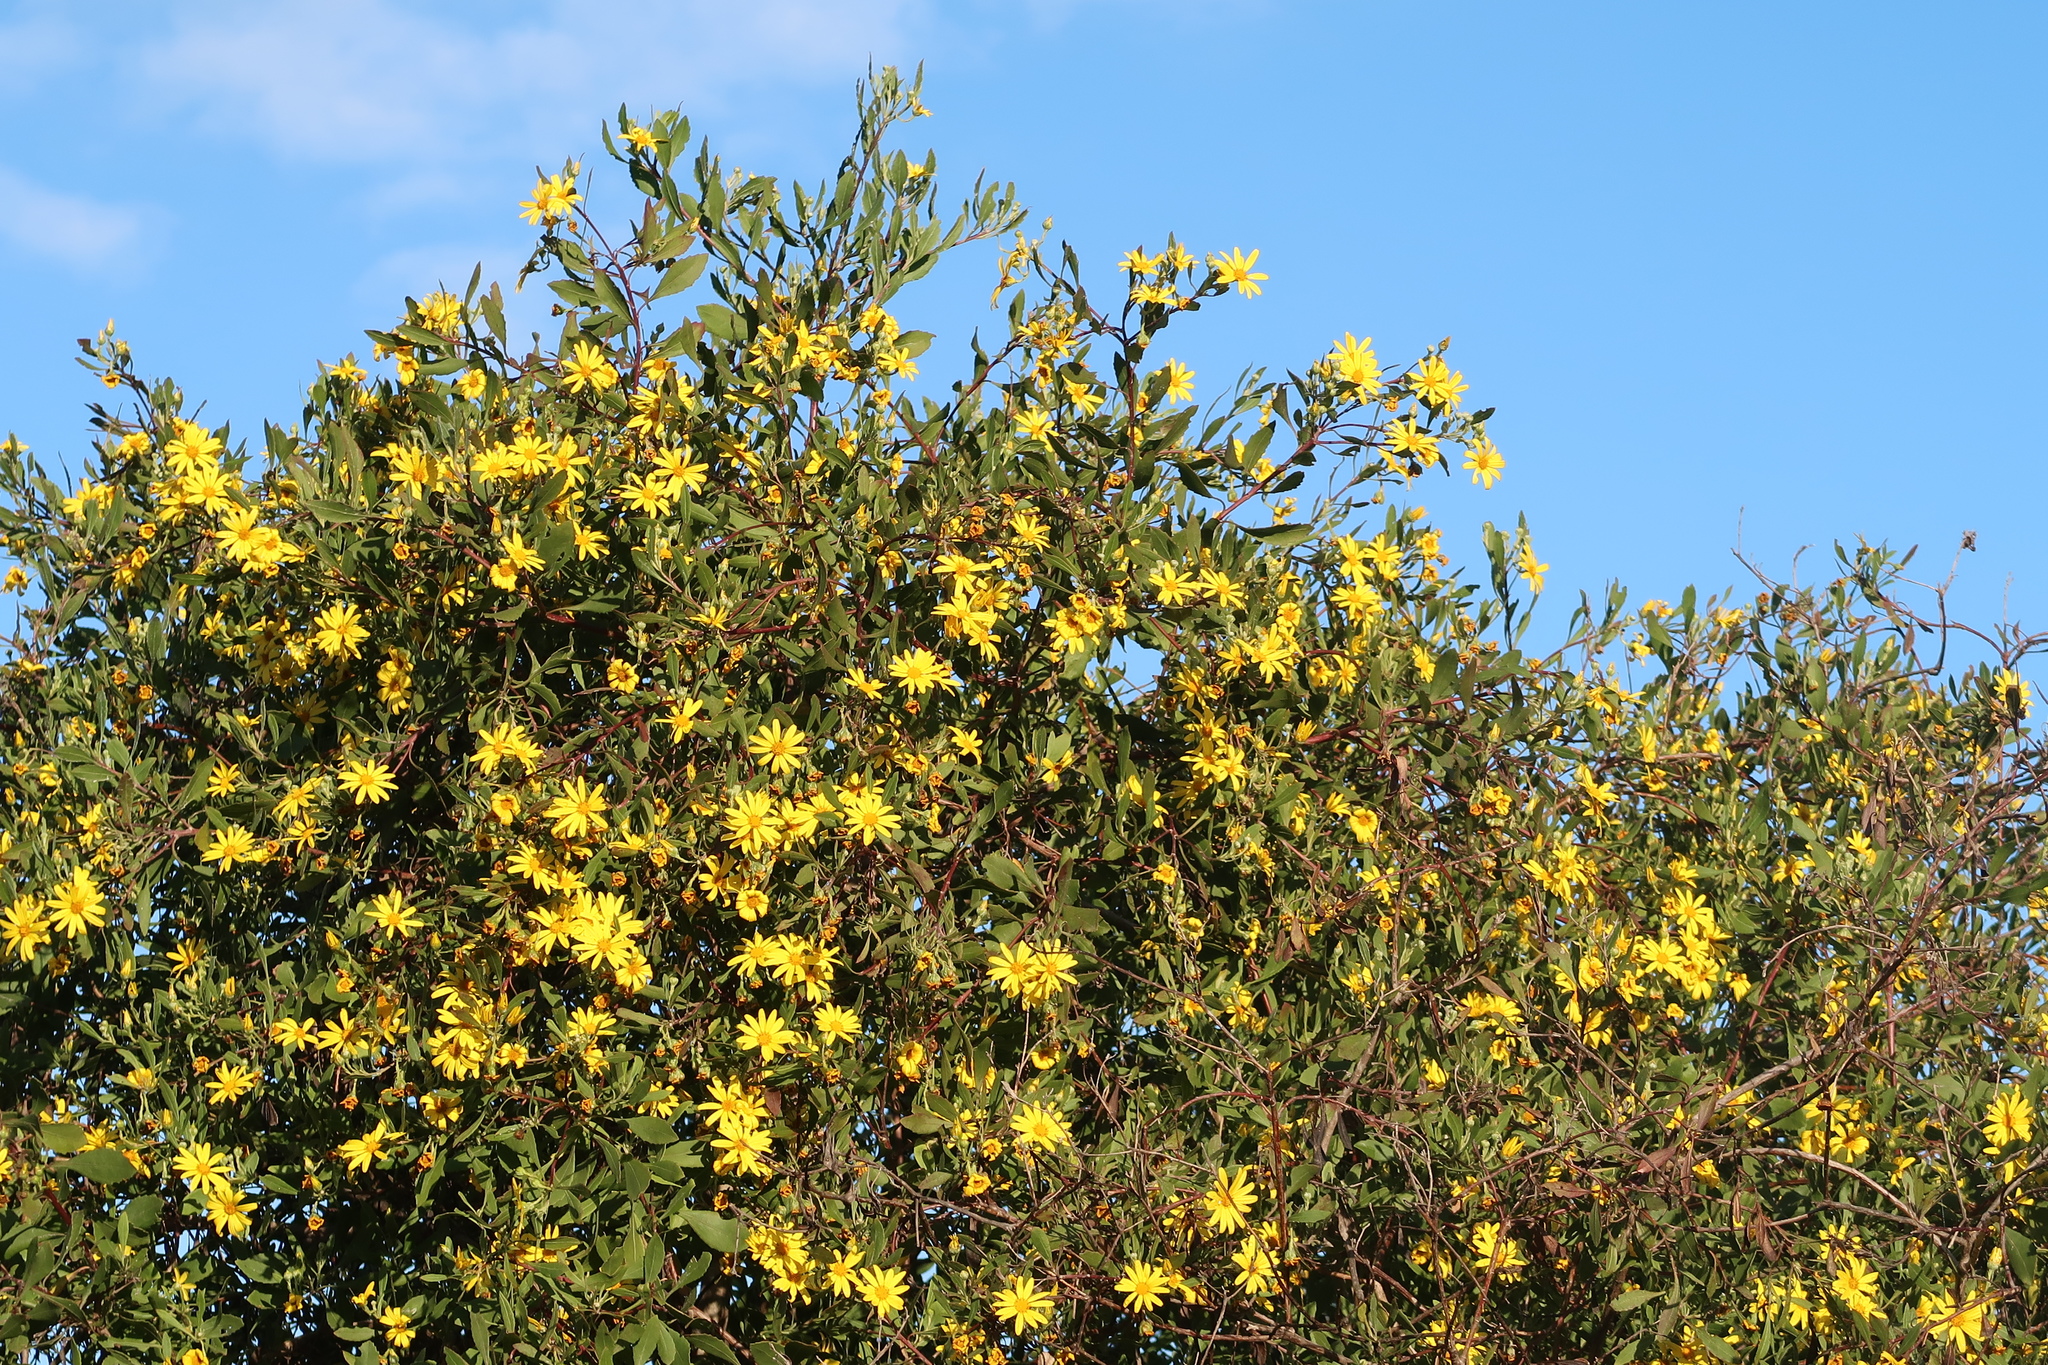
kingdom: Plantae
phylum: Tracheophyta
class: Magnoliopsida
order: Asterales
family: Asteraceae
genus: Osteospermum
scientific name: Osteospermum moniliferum
